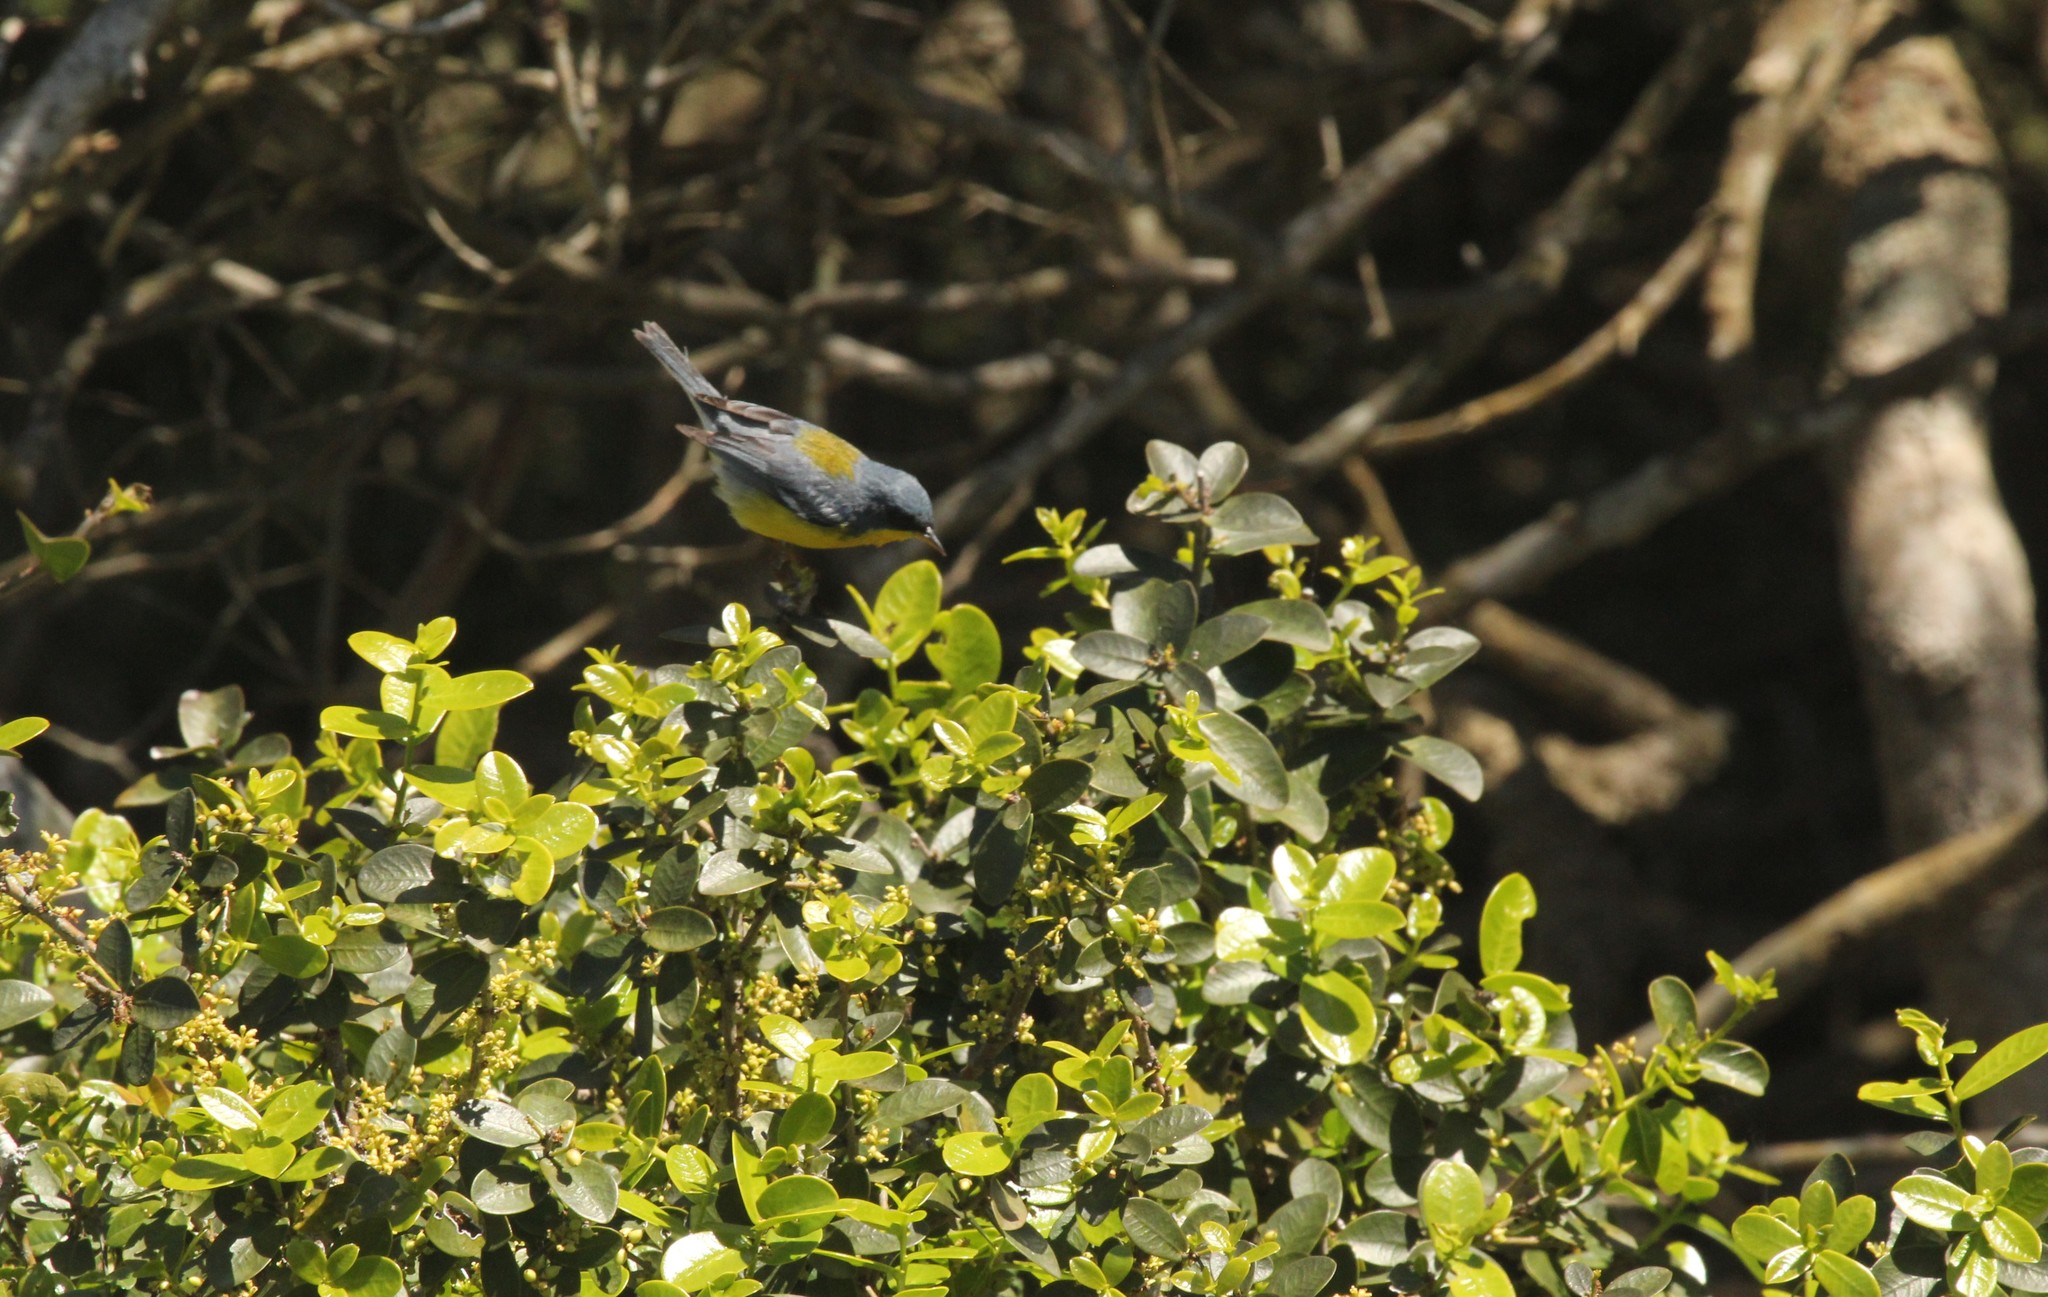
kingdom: Animalia
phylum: Chordata
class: Aves
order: Passeriformes
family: Parulidae
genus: Setophaga
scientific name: Setophaga pitiayumi
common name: Tropical parula
